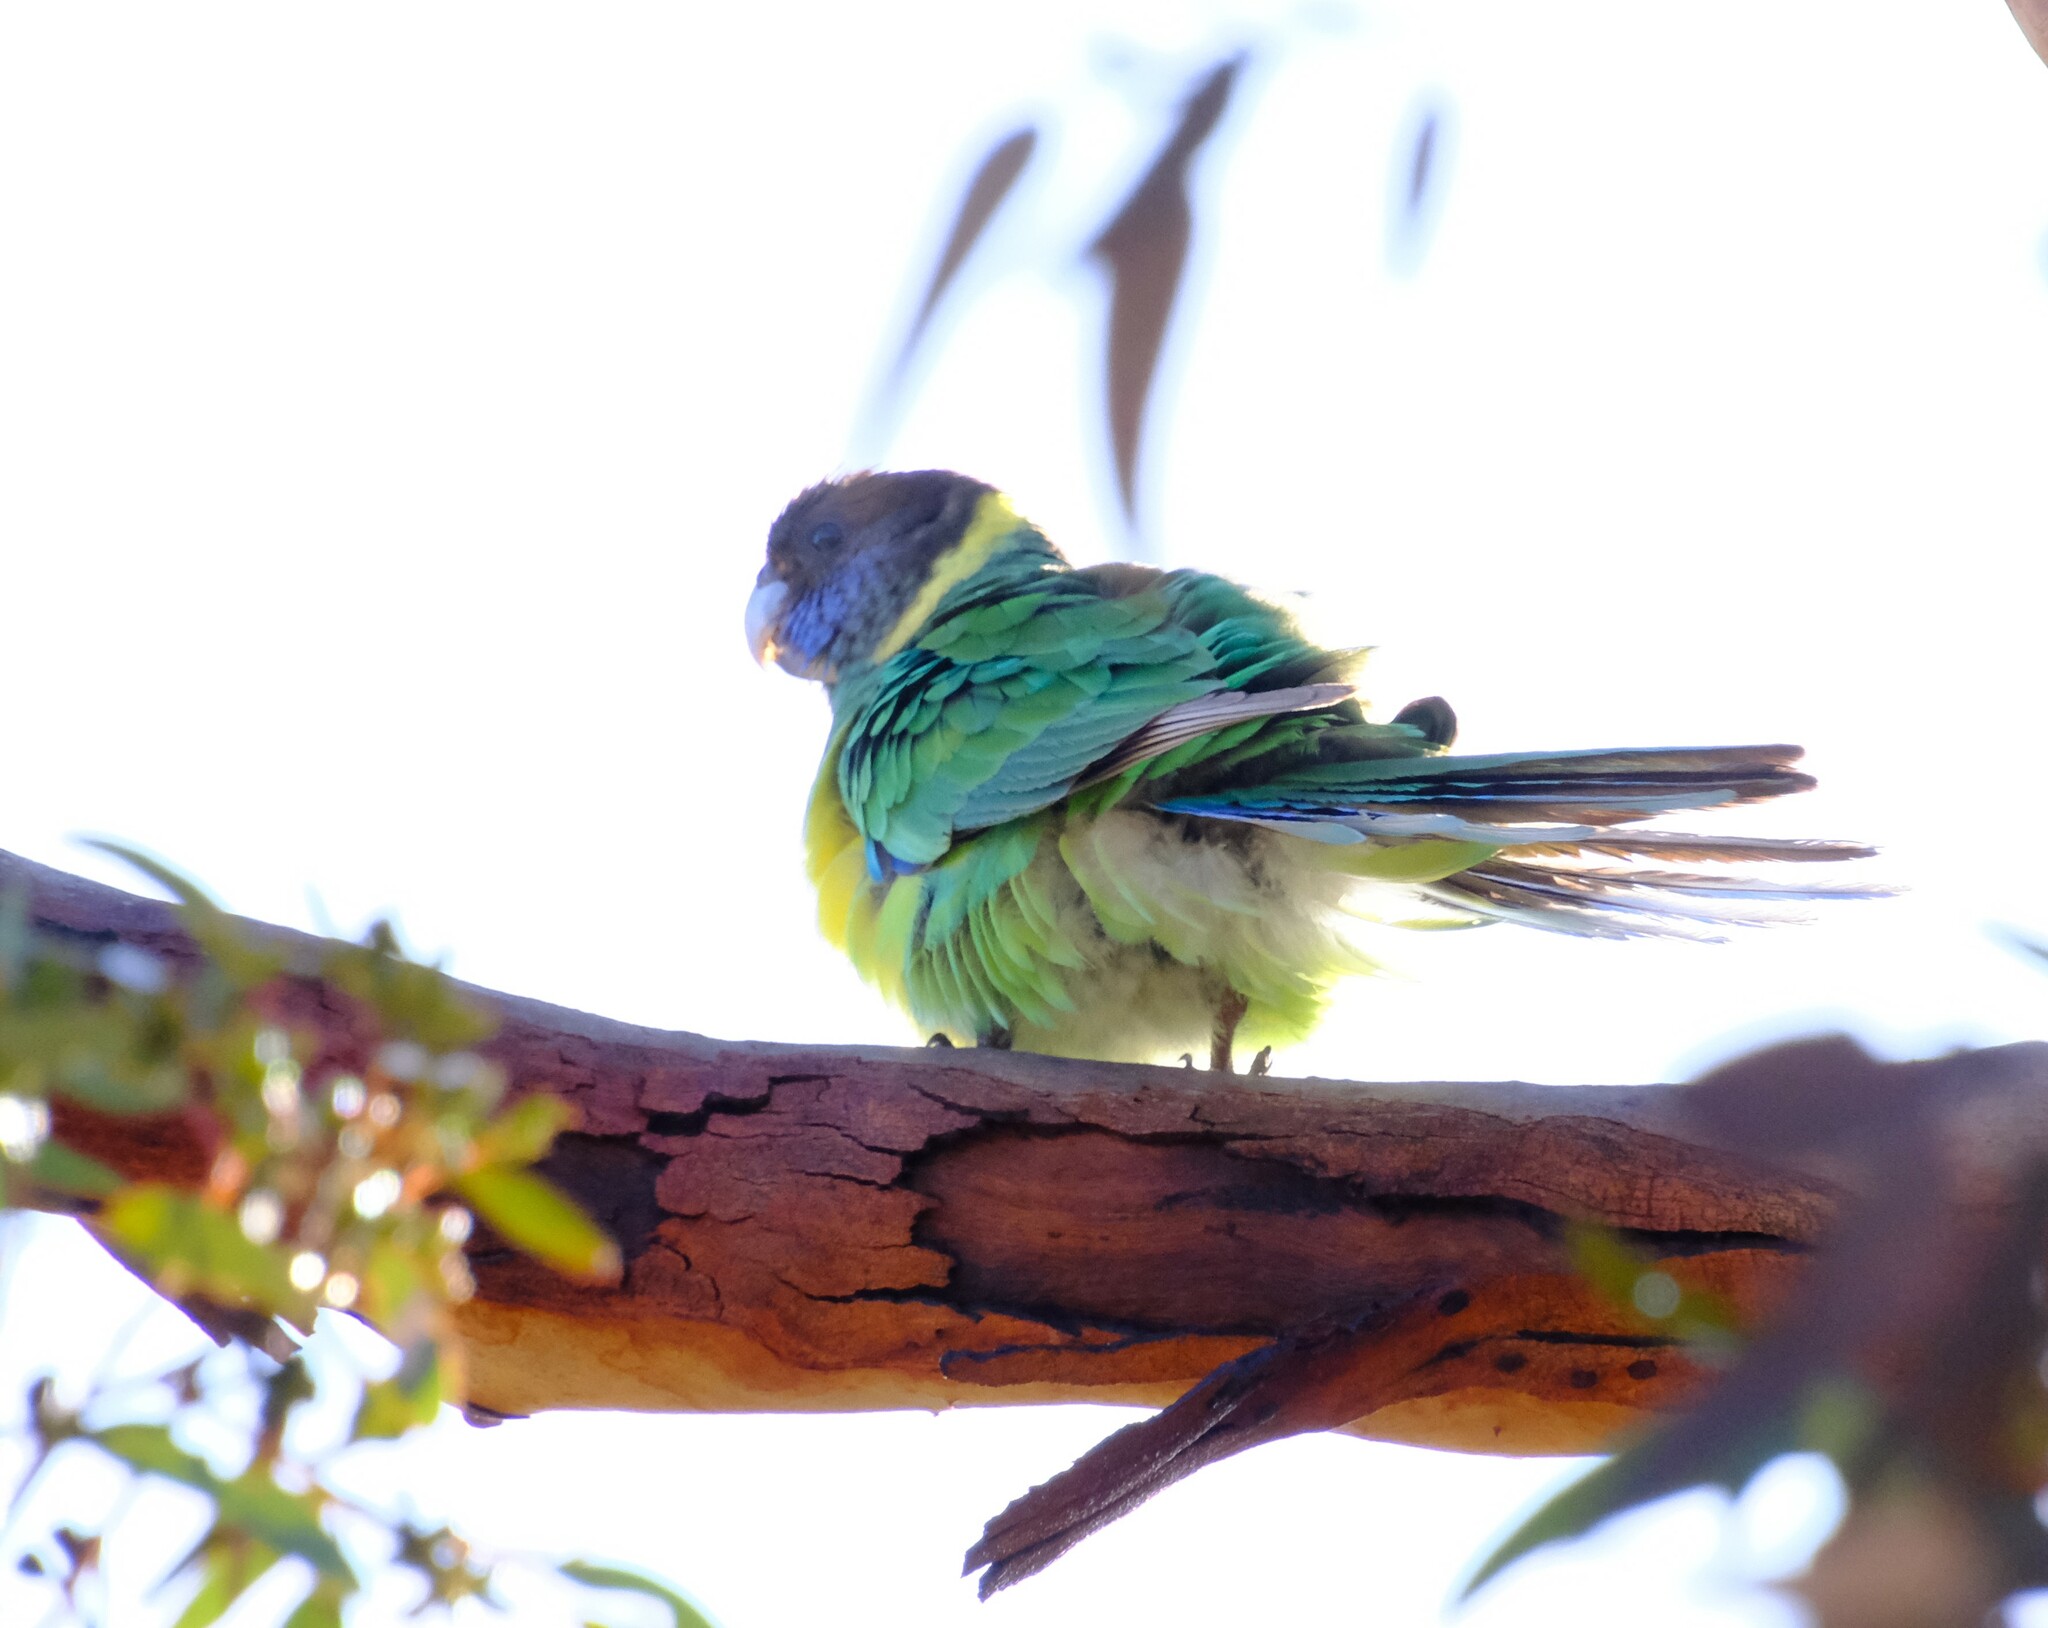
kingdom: Animalia
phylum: Chordata
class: Aves
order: Psittaciformes
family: Psittacidae
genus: Barnardius
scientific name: Barnardius zonarius
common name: Australian ringneck
